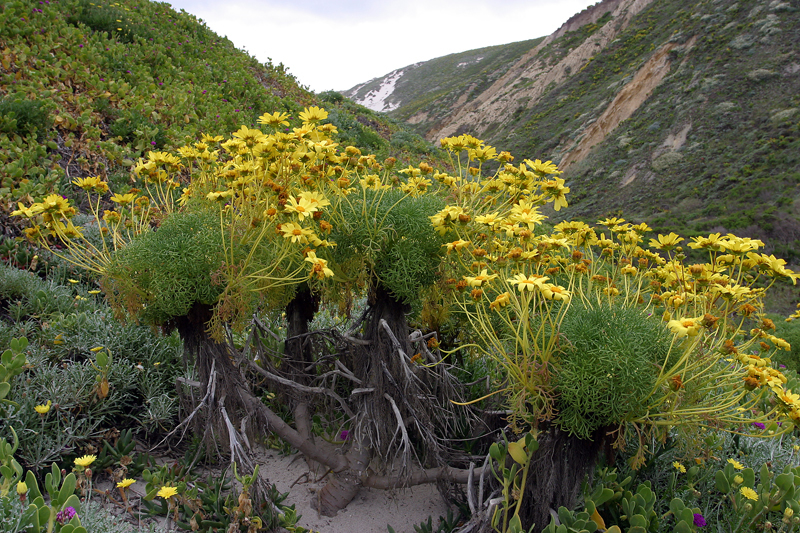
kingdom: Plantae
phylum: Tracheophyta
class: Magnoliopsida
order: Asterales
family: Asteraceae
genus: Coreopsis
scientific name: Coreopsis gigantea
